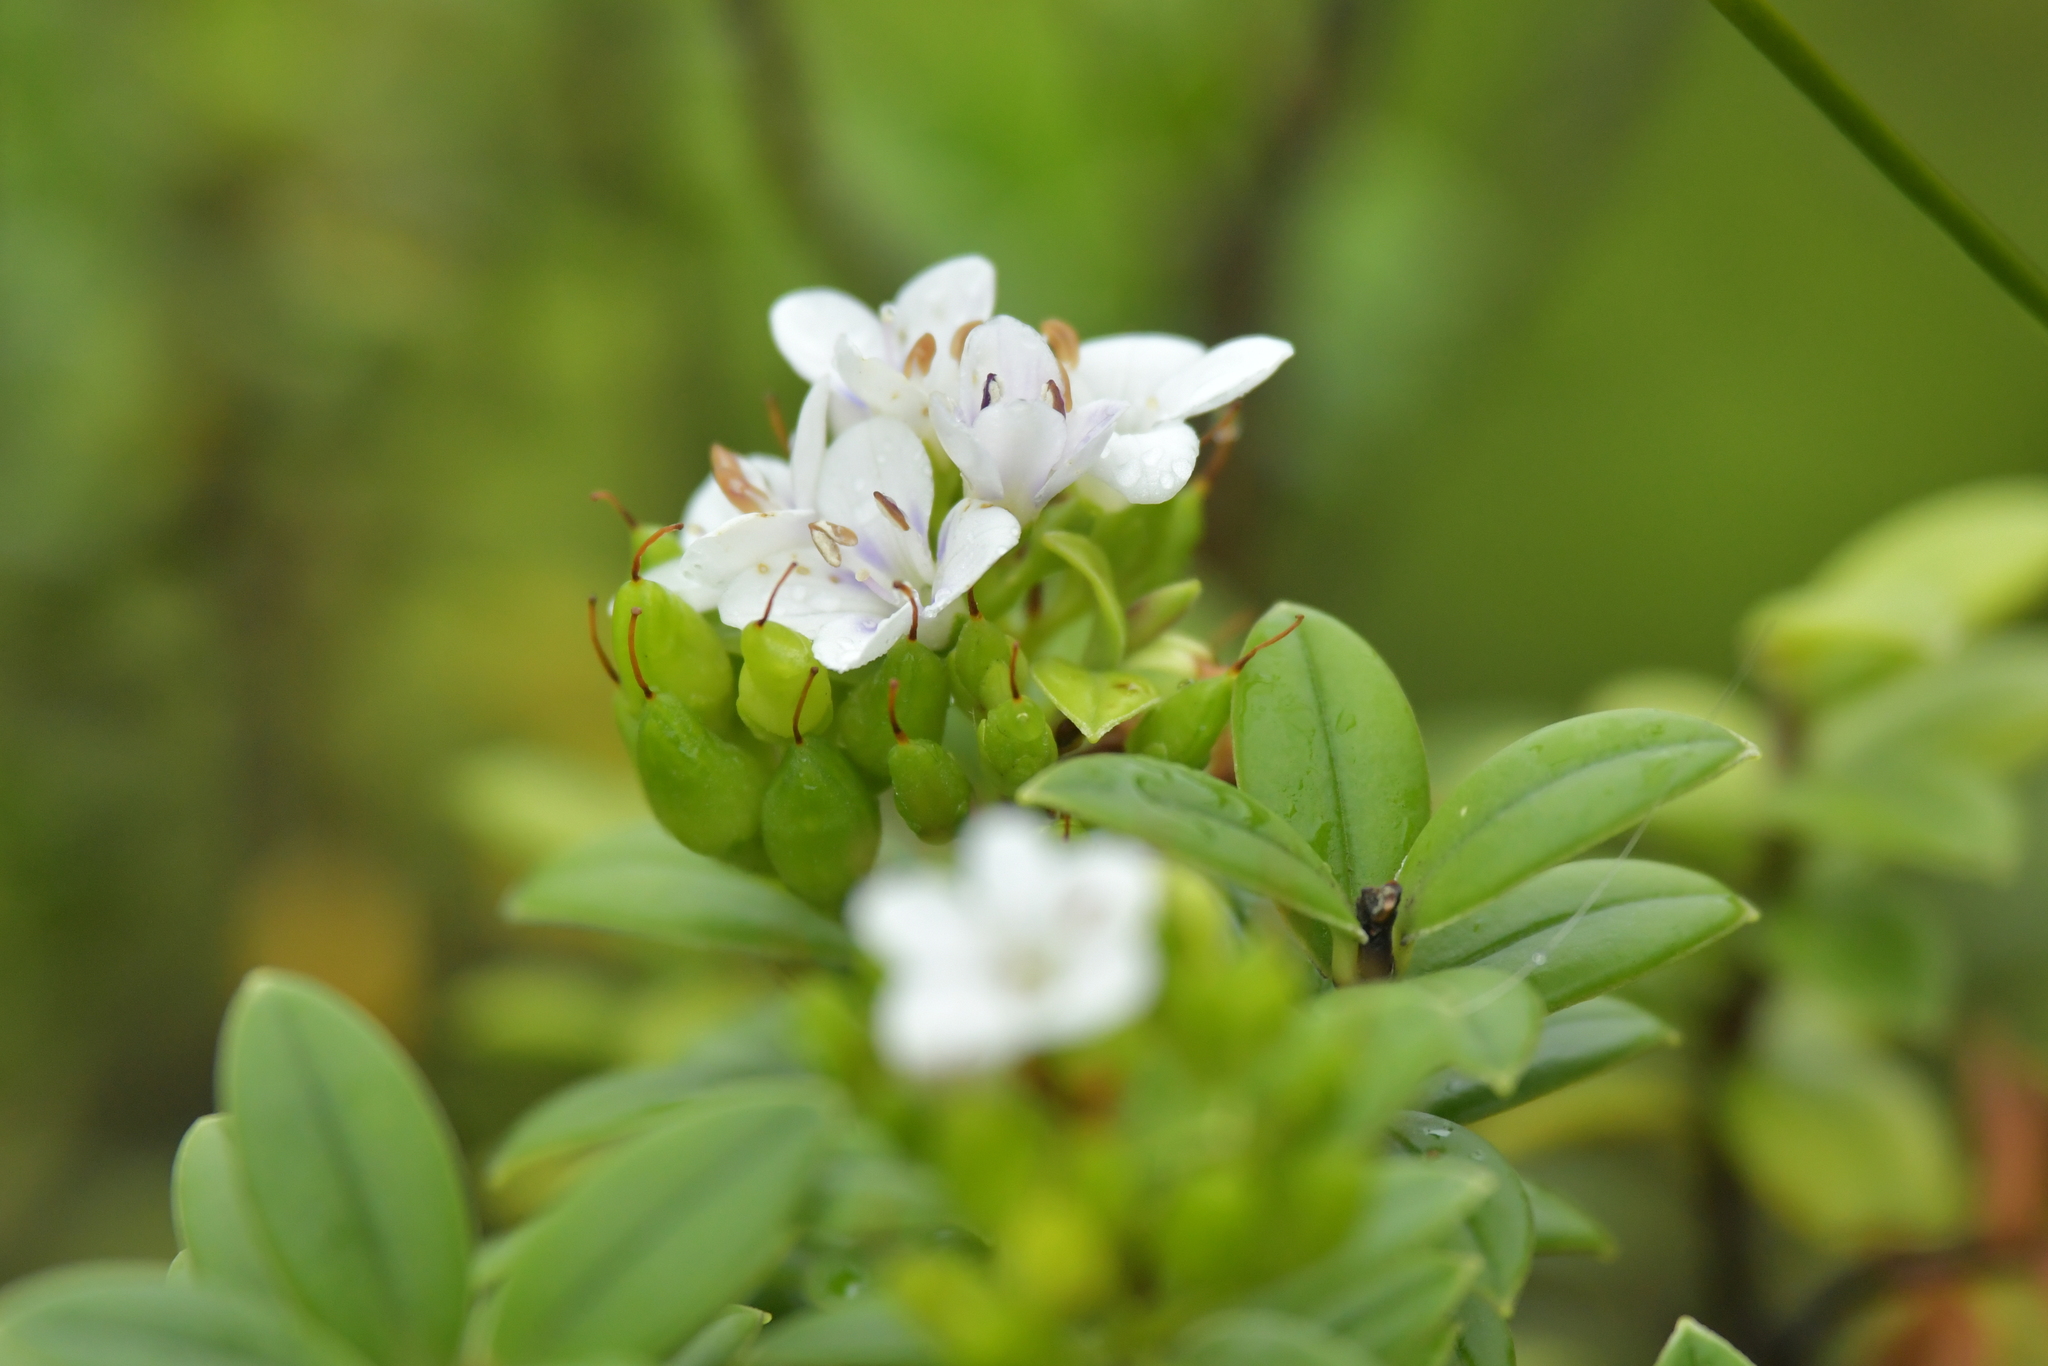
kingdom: Plantae
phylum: Tracheophyta
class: Magnoliopsida
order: Lamiales
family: Plantaginaceae
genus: Veronica
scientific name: Veronica elliptica
